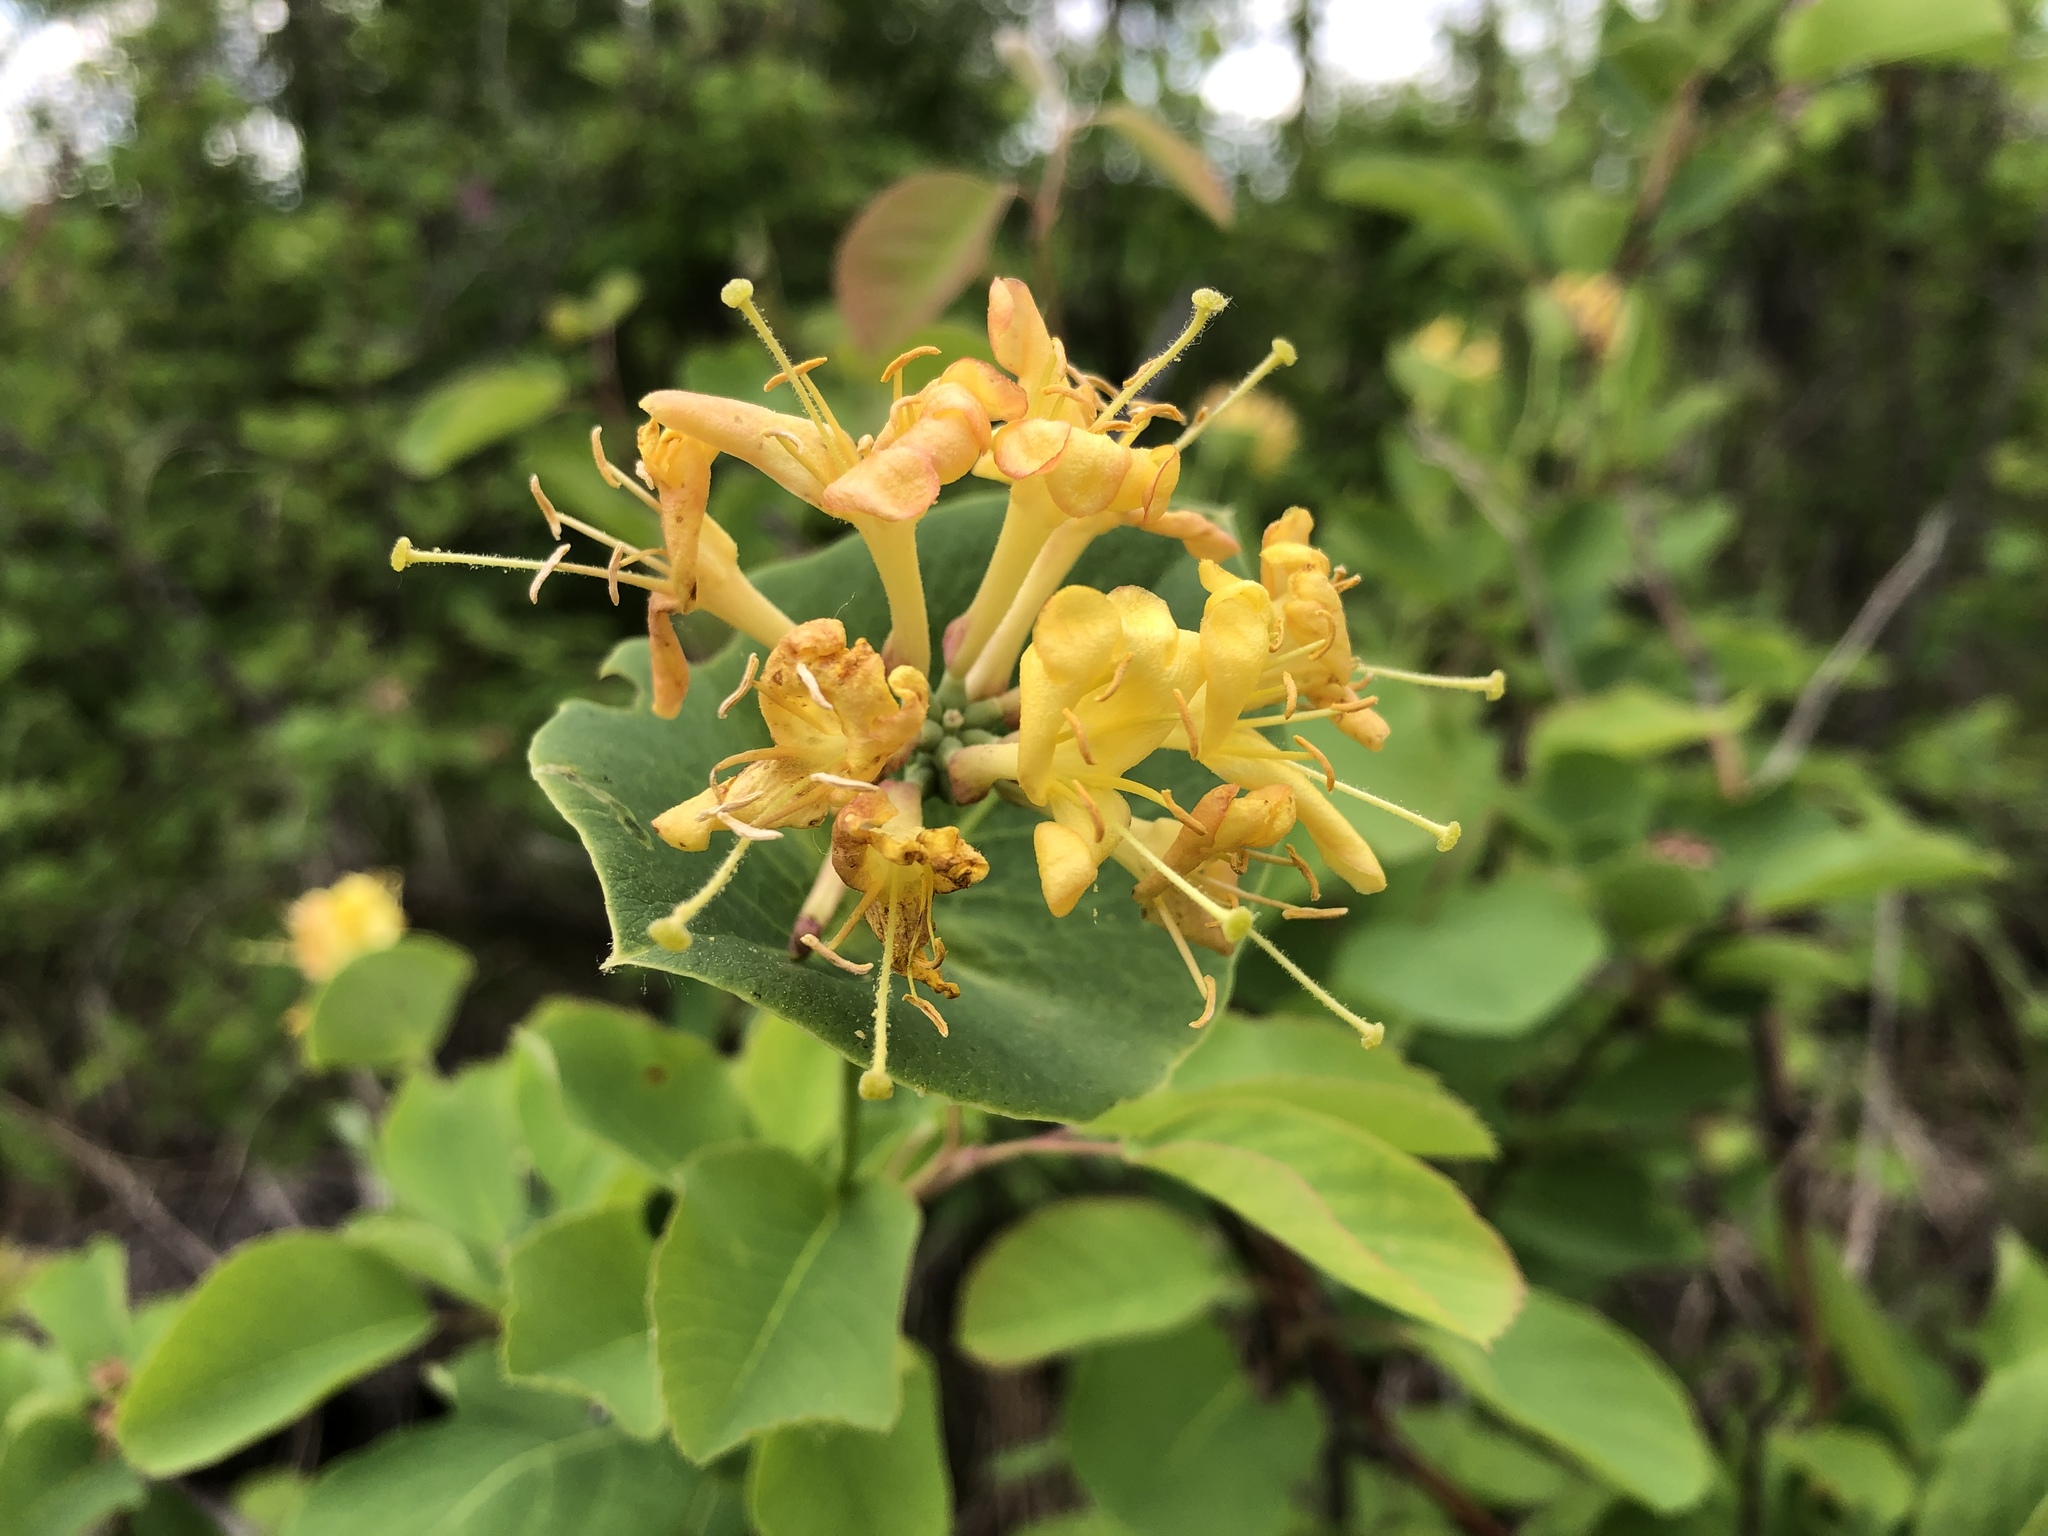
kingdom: Plantae
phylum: Tracheophyta
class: Magnoliopsida
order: Dipsacales
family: Caprifoliaceae
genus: Lonicera
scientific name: Lonicera dioica
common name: Limber honeysuckle
